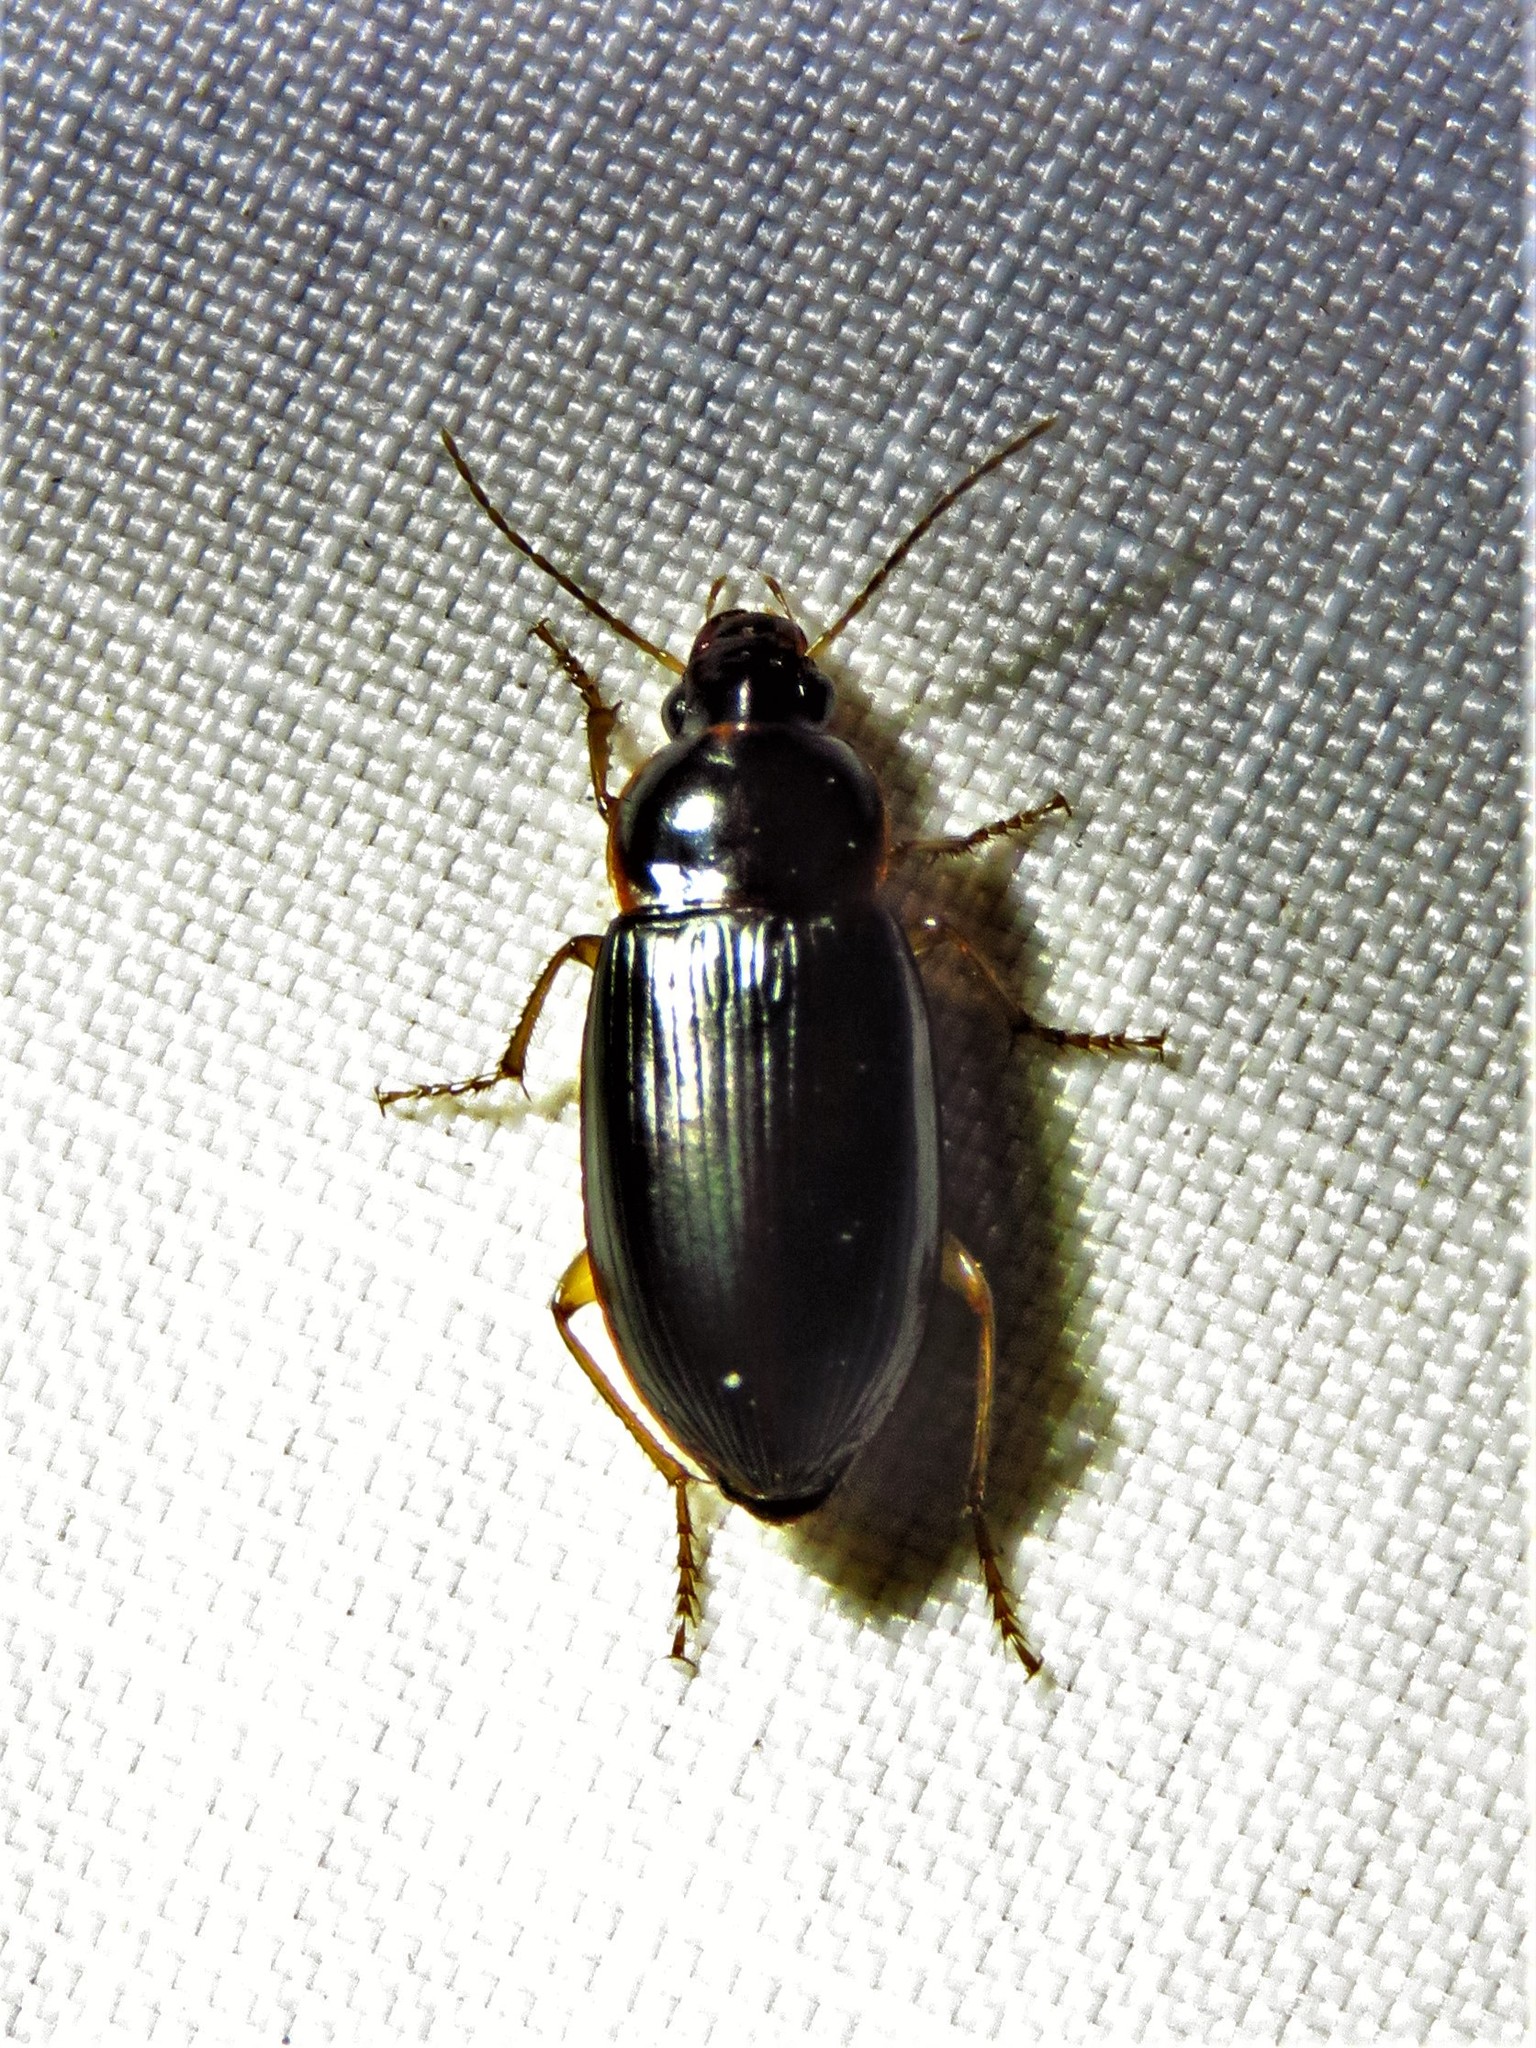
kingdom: Animalia
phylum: Arthropoda
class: Insecta
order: Coleoptera
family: Carabidae
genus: Notiobia
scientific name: Notiobia terminata
